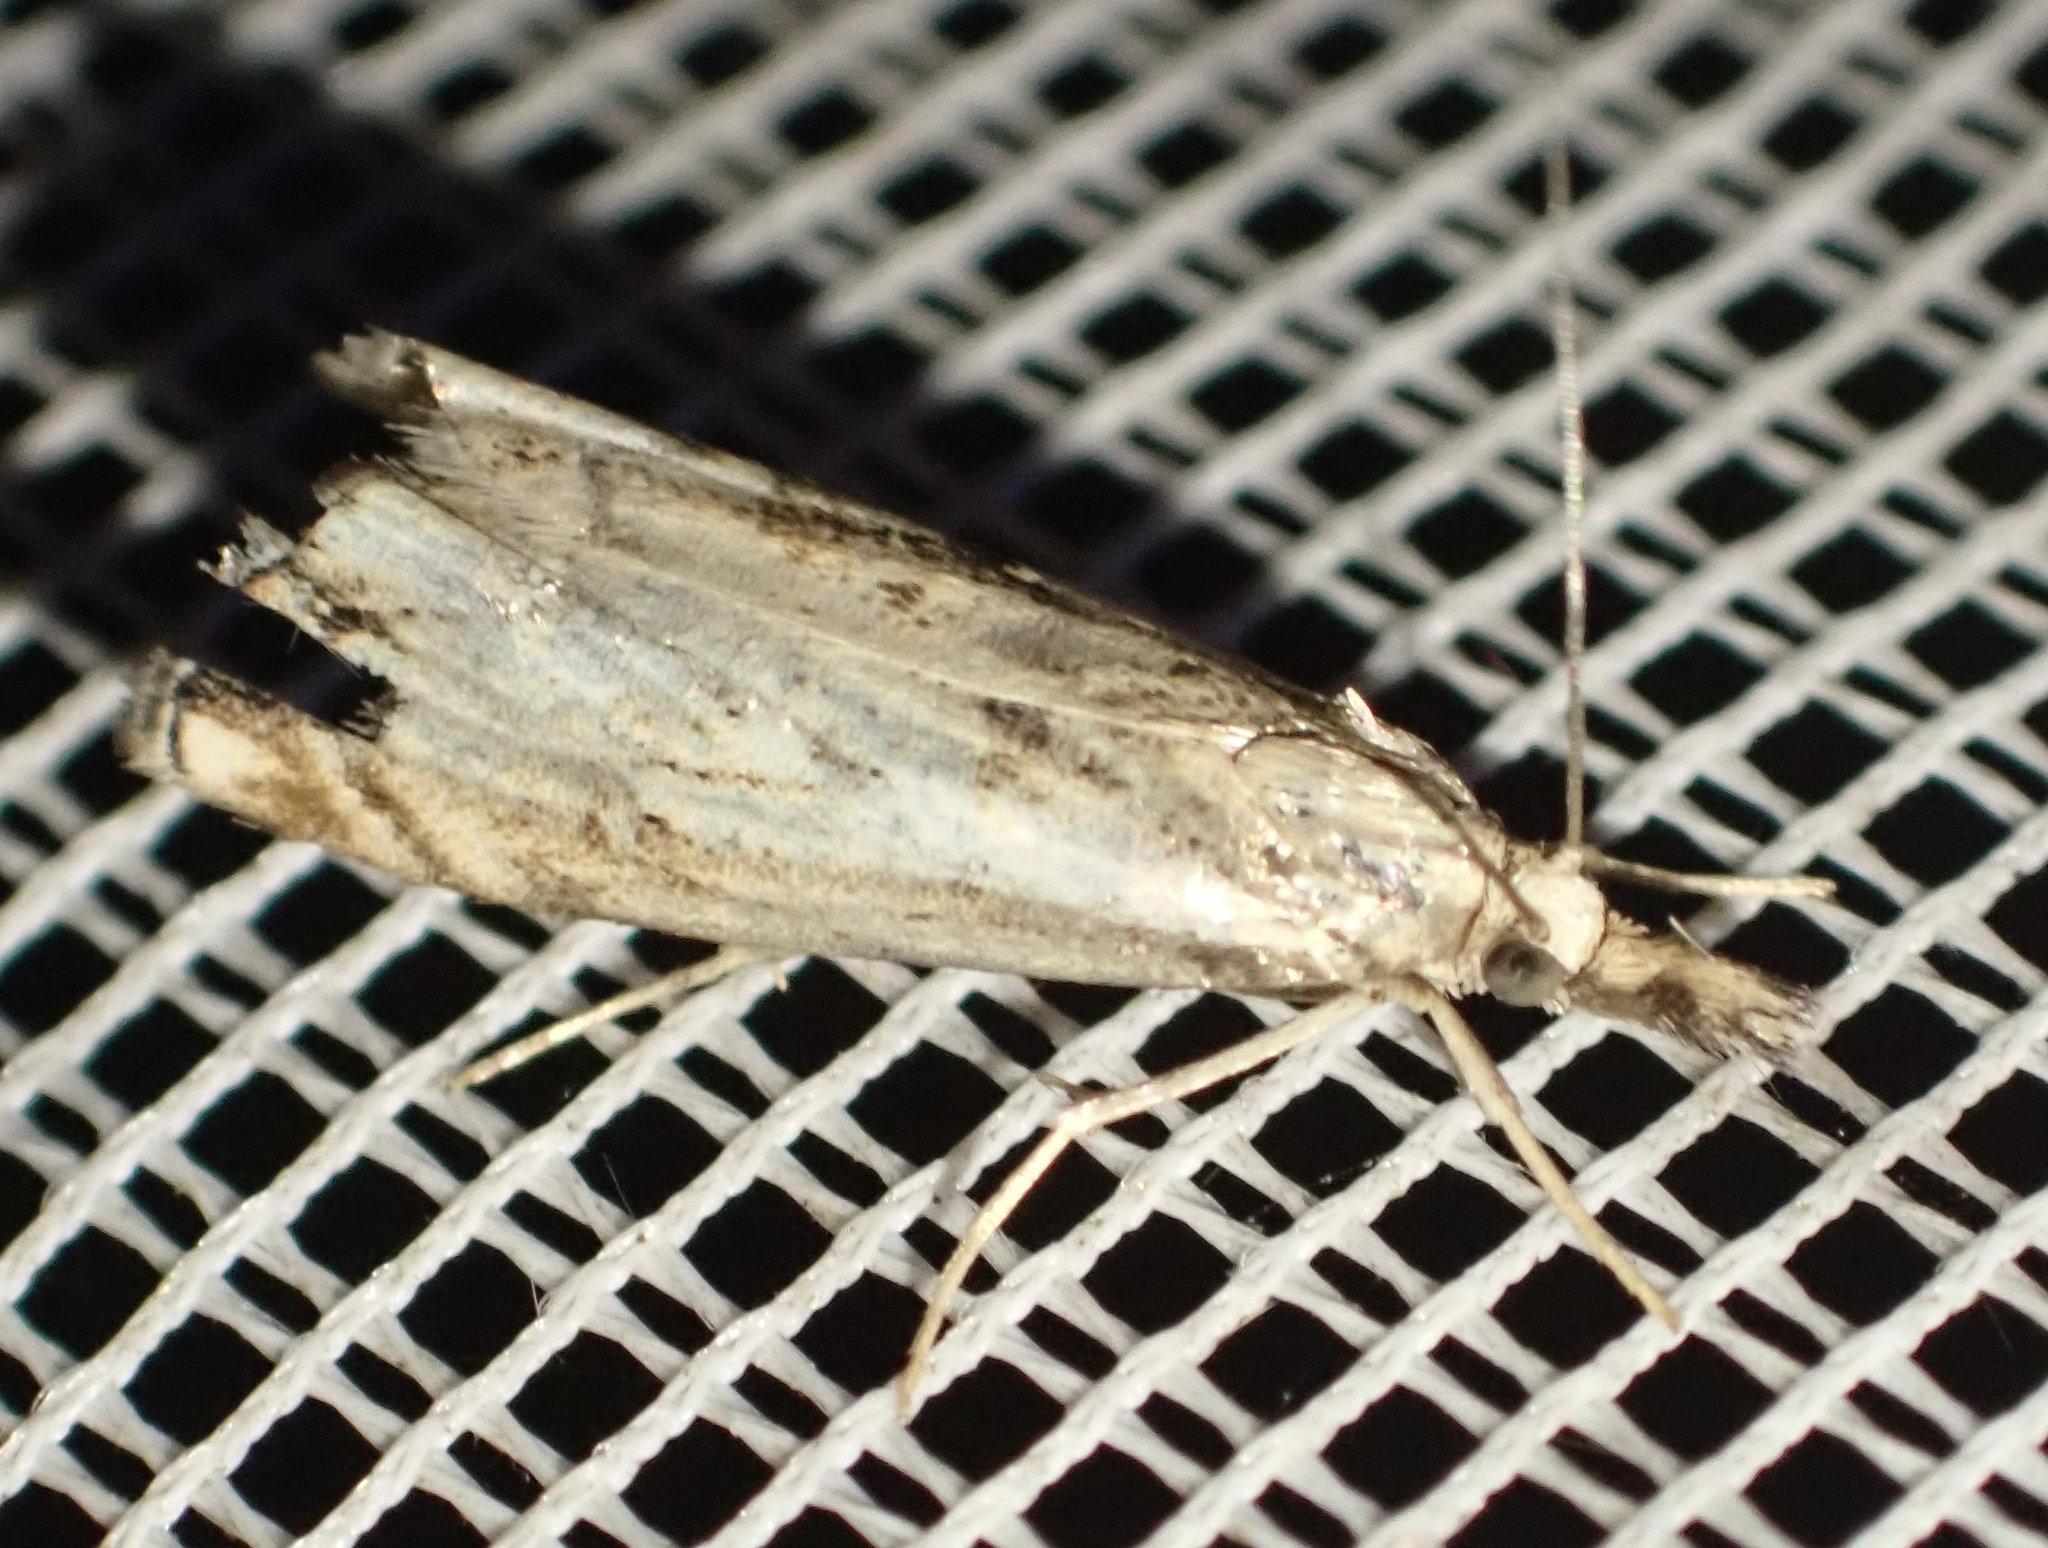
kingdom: Animalia
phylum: Arthropoda
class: Insecta
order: Lepidoptera
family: Crambidae
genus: Catoptria
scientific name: Catoptria falsella
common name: Chequered grass-veneer
